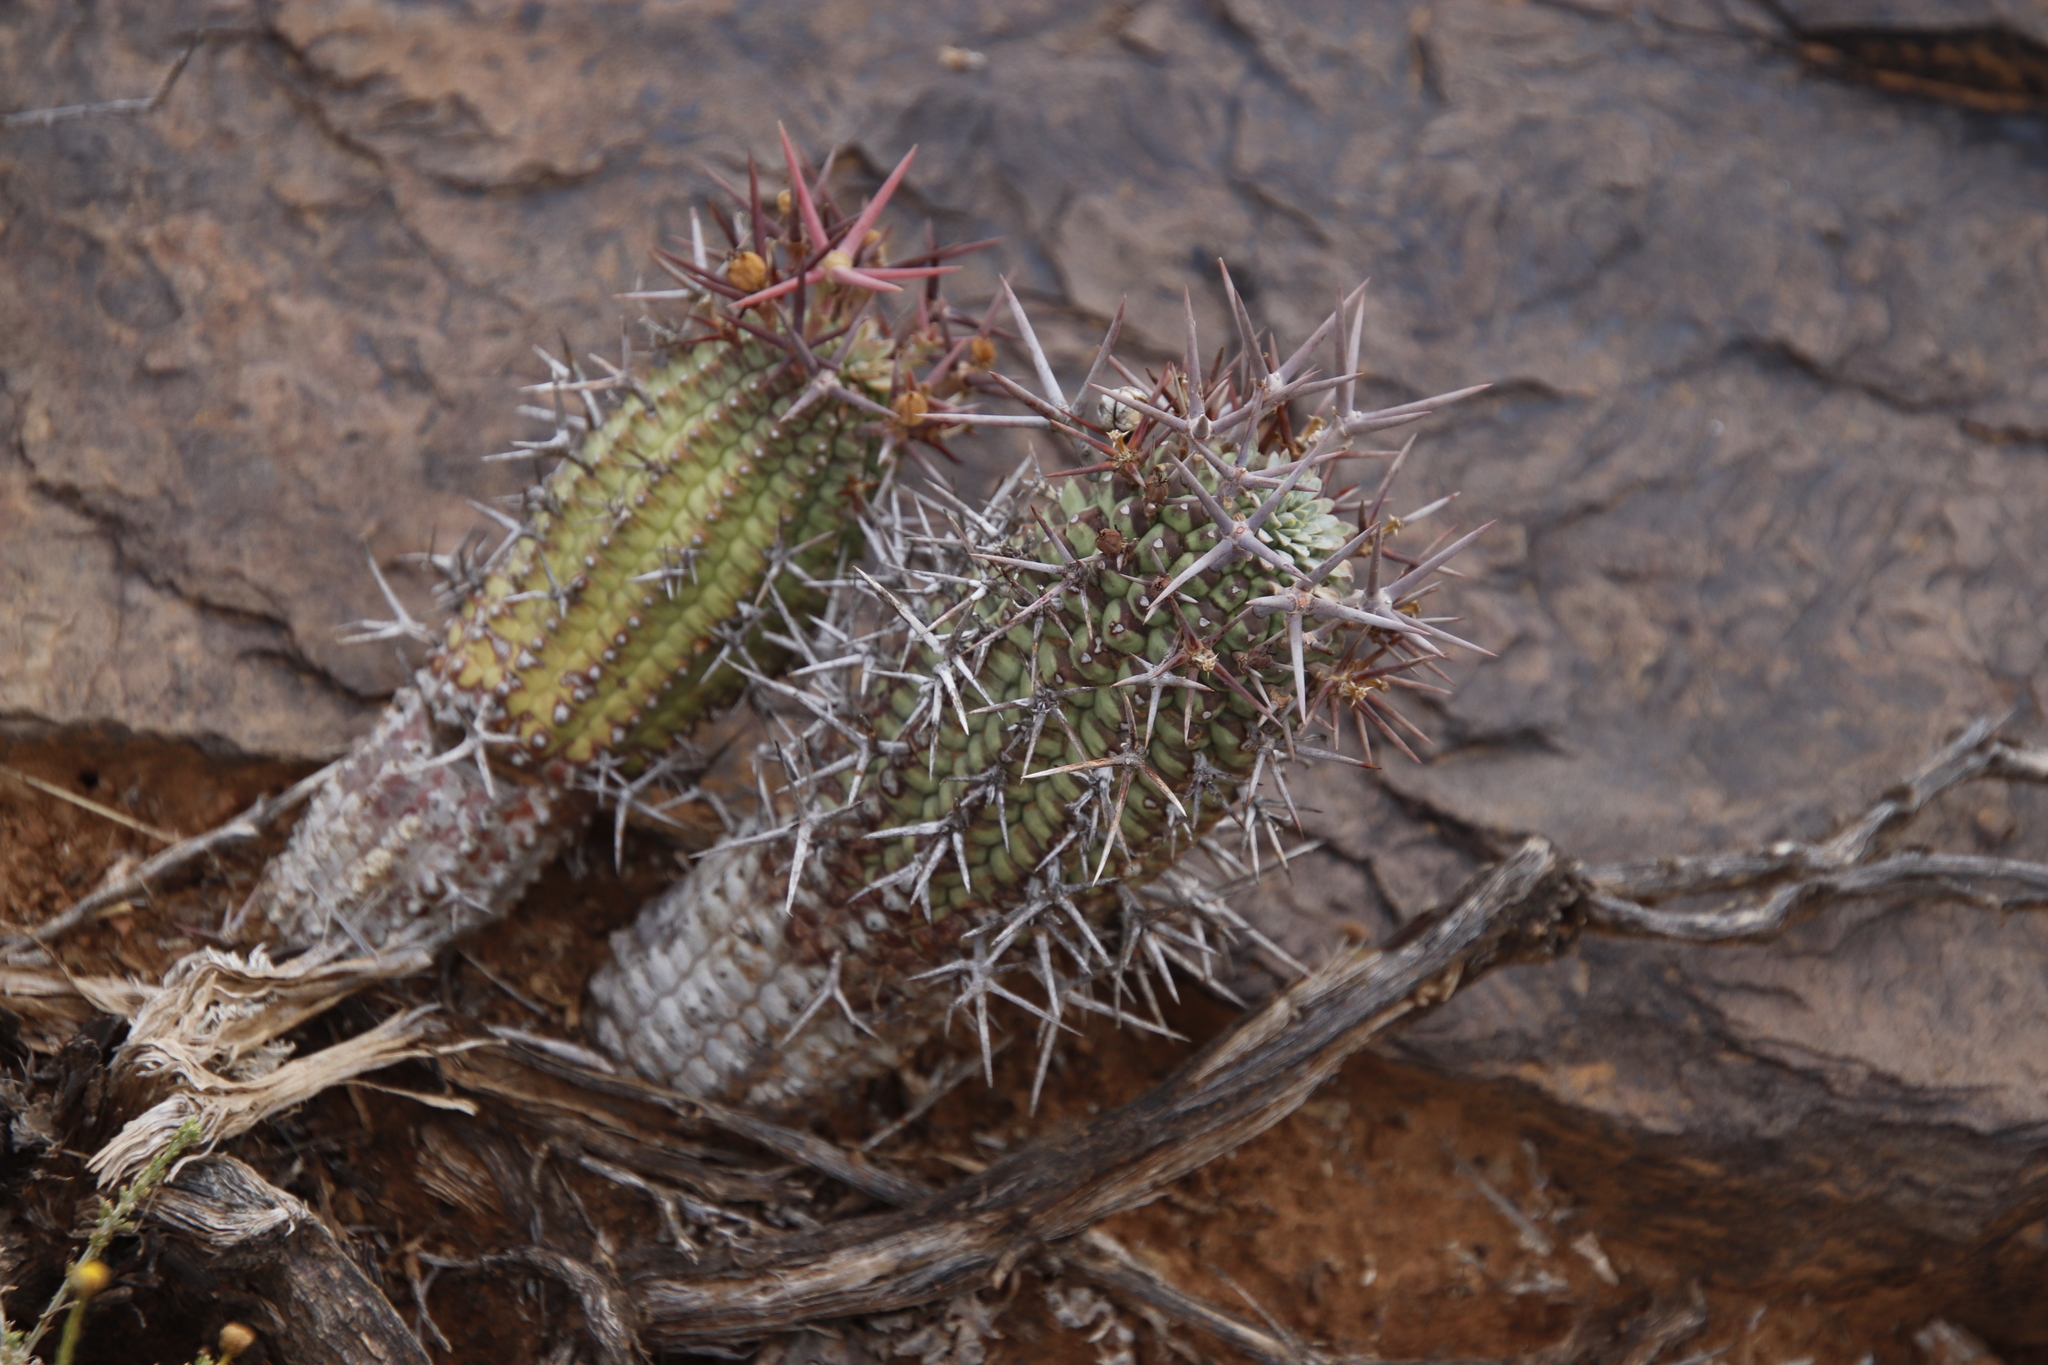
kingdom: Plantae
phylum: Tracheophyta
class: Magnoliopsida
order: Malpighiales
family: Euphorbiaceae
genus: Euphorbia
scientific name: Euphorbia stellispina
